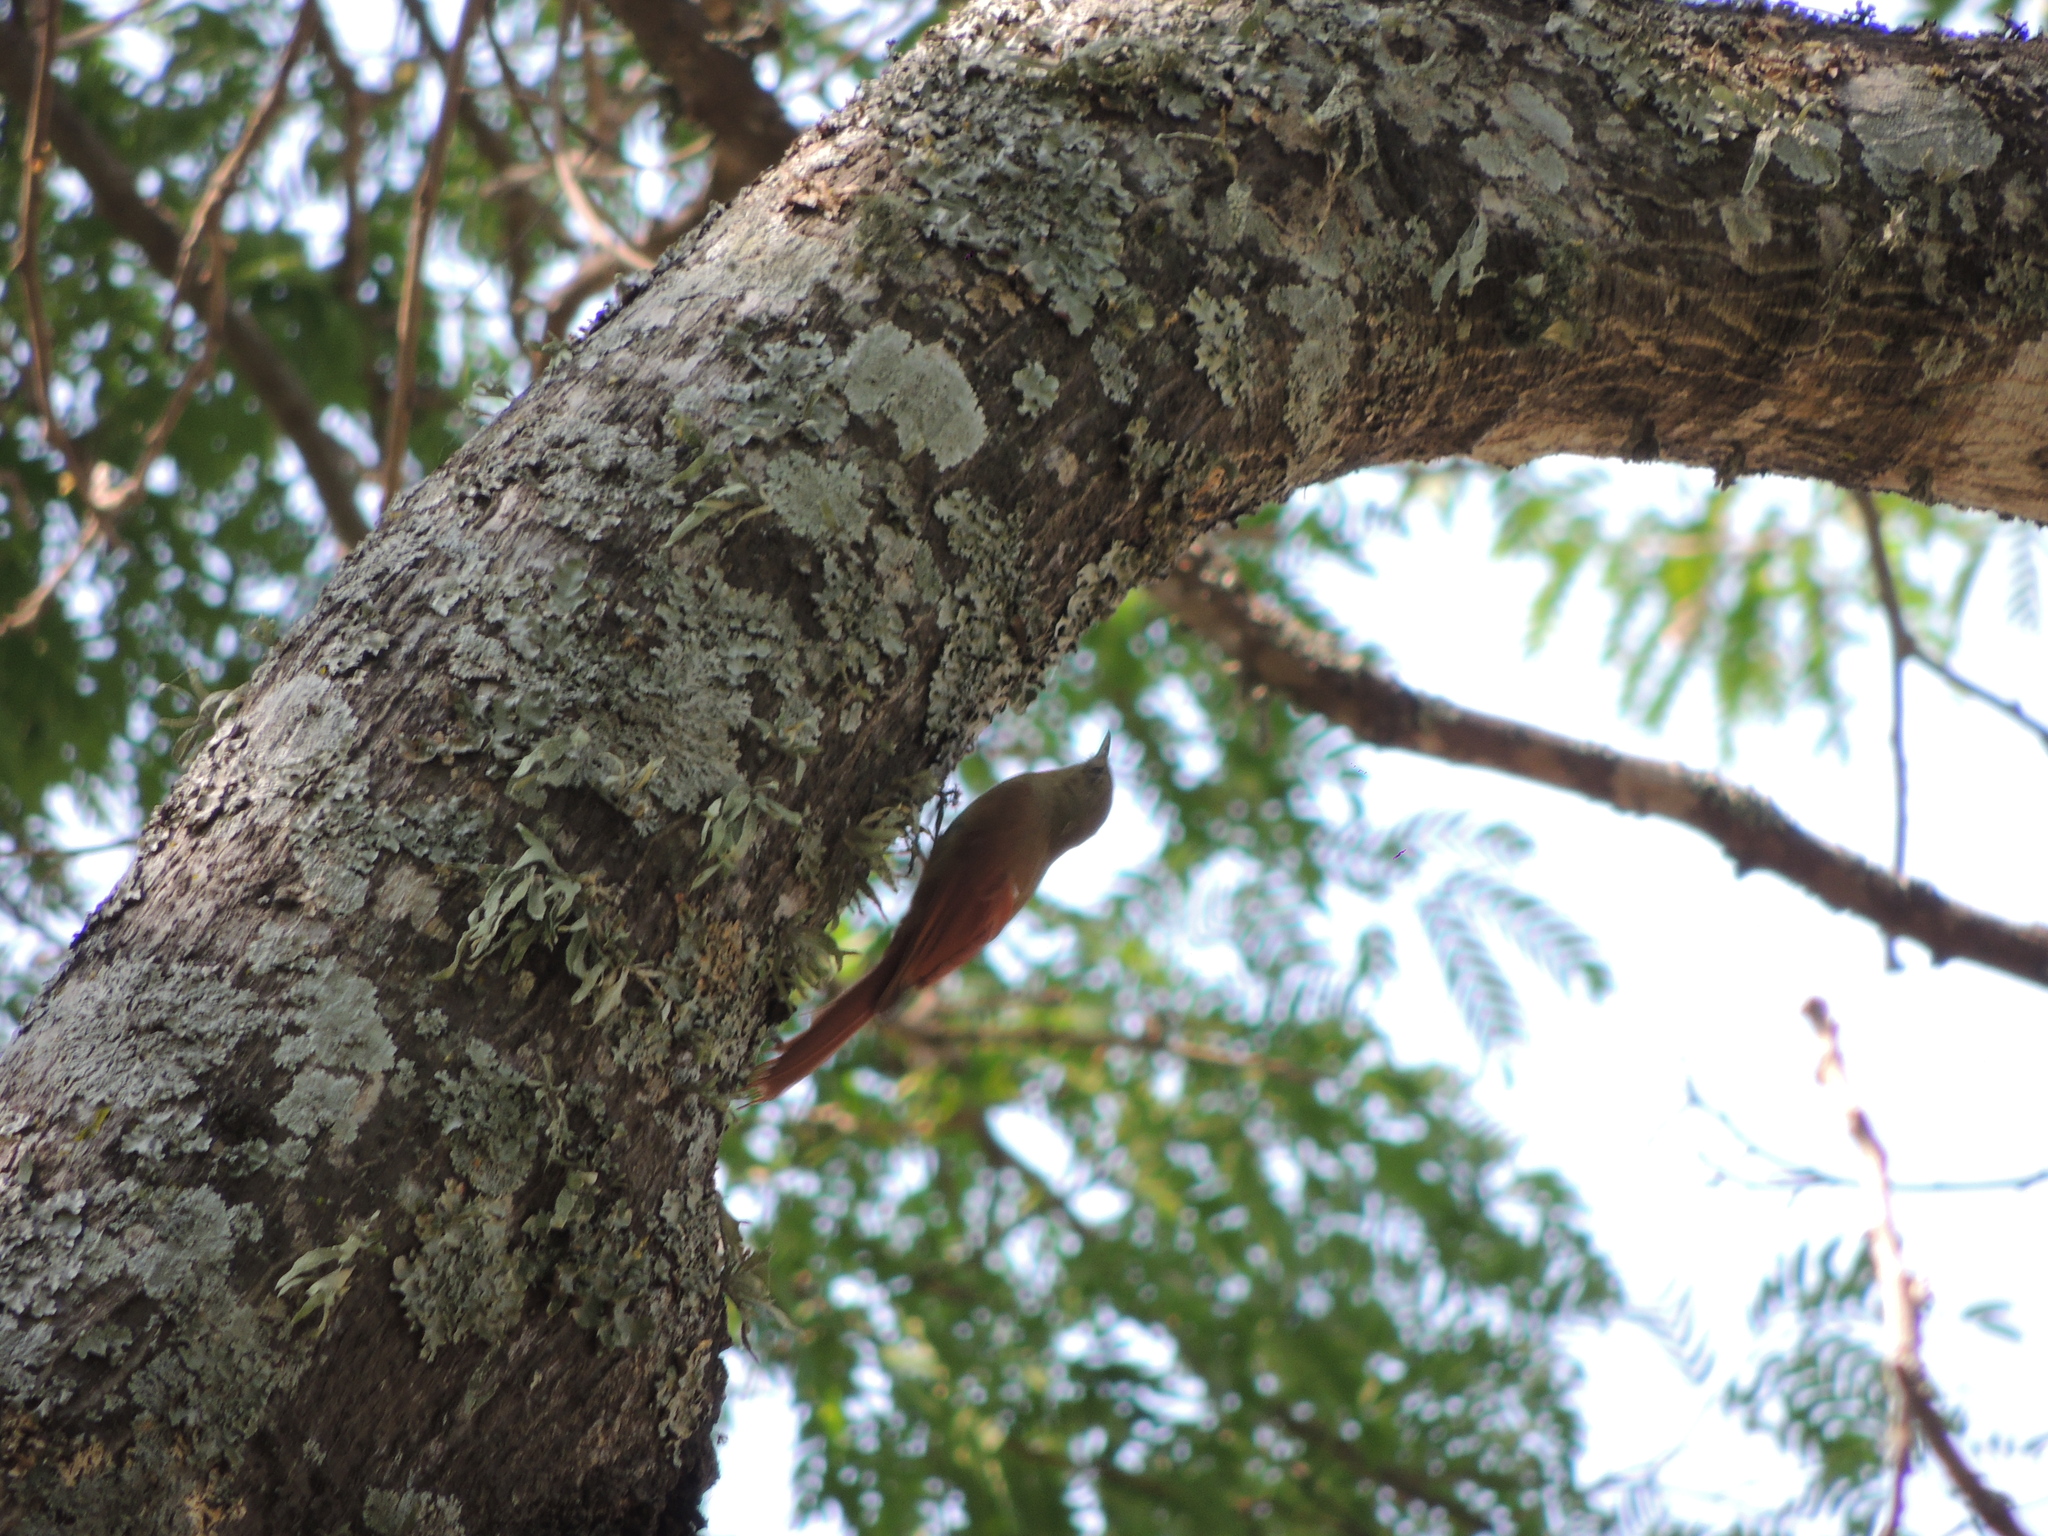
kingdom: Animalia
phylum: Chordata
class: Aves
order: Passeriformes
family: Furnariidae
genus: Sittasomus
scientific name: Sittasomus griseicapillus
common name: Olivaceous woodcreeper
